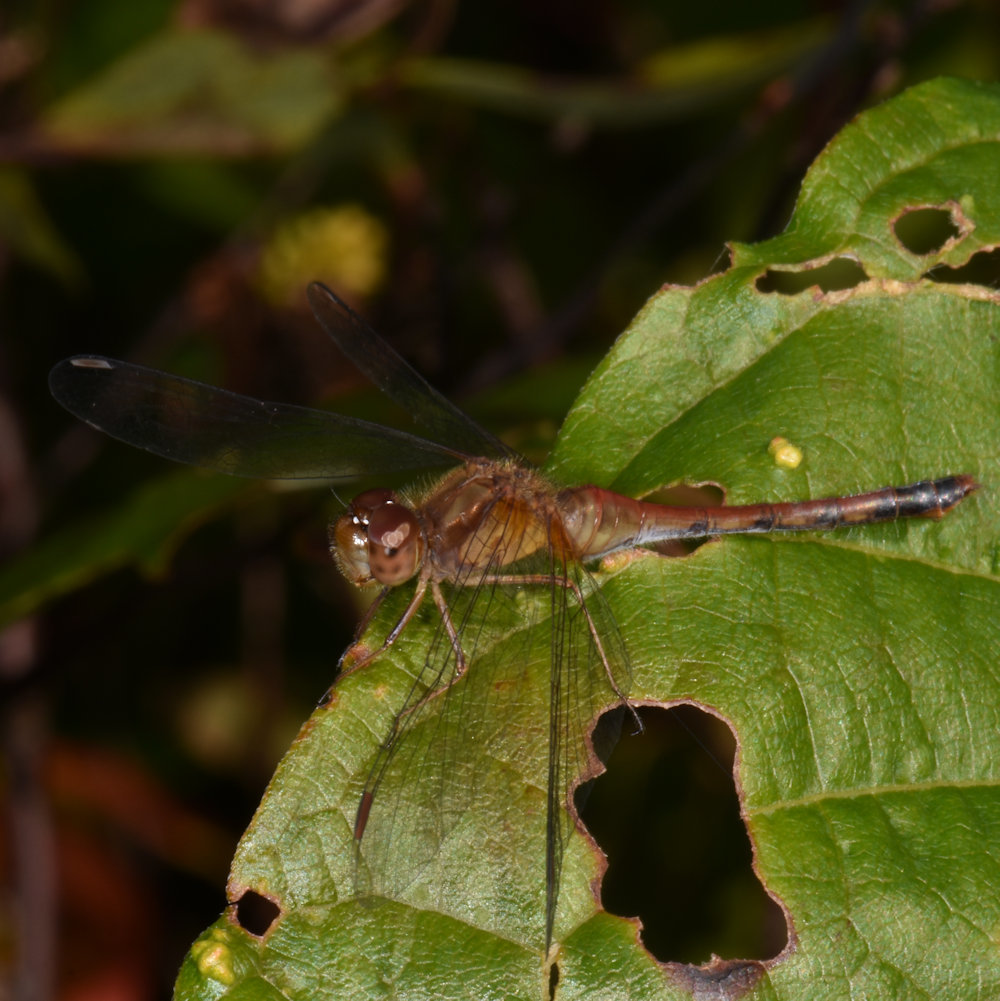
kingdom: Animalia
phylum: Arthropoda
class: Insecta
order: Odonata
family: Libellulidae
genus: Sympetrum
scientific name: Sympetrum vicinum
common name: Autumn meadowhawk
